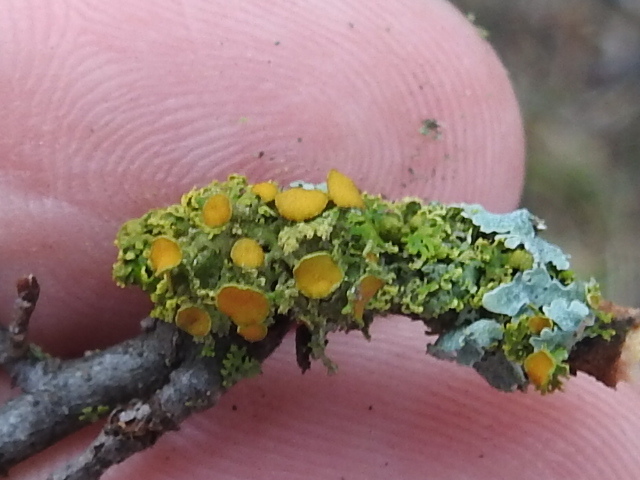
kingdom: Fungi
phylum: Ascomycota
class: Lecanoromycetes
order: Teloschistales
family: Teloschistaceae
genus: Niorma
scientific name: Niorma chrysophthalma
